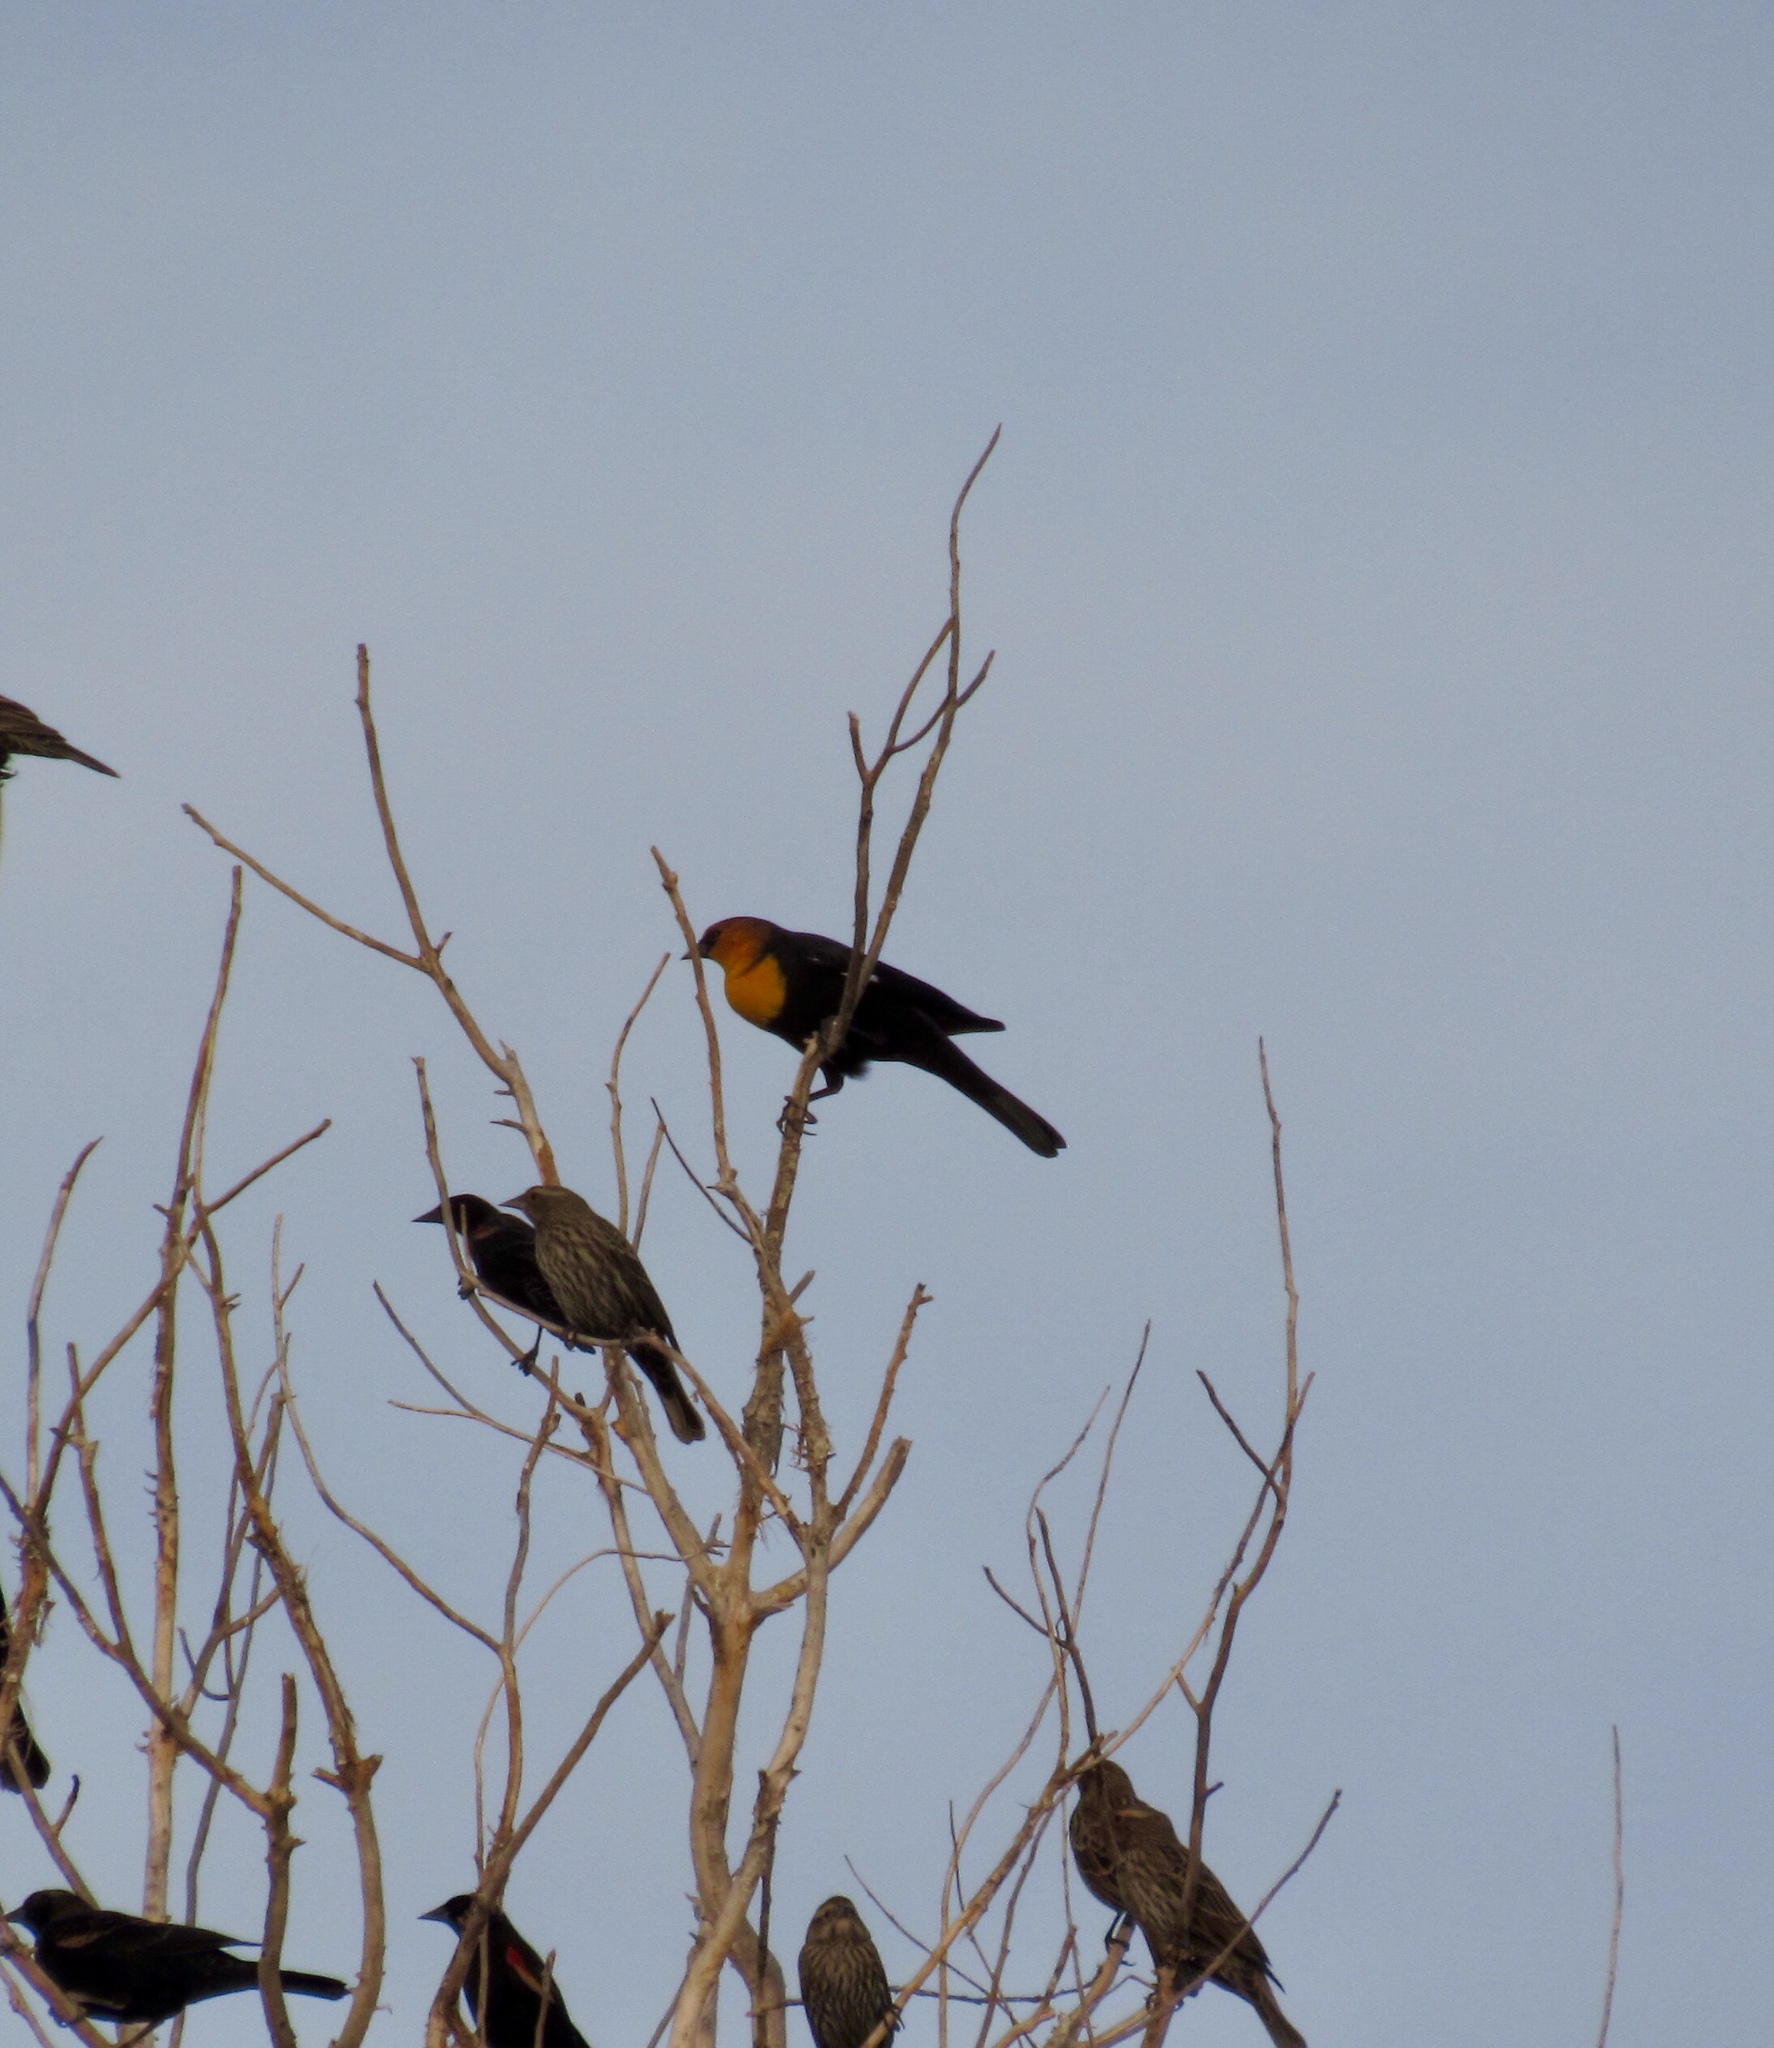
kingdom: Animalia
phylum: Chordata
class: Aves
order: Passeriformes
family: Icteridae
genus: Xanthocephalus
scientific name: Xanthocephalus xanthocephalus
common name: Yellow-headed blackbird
